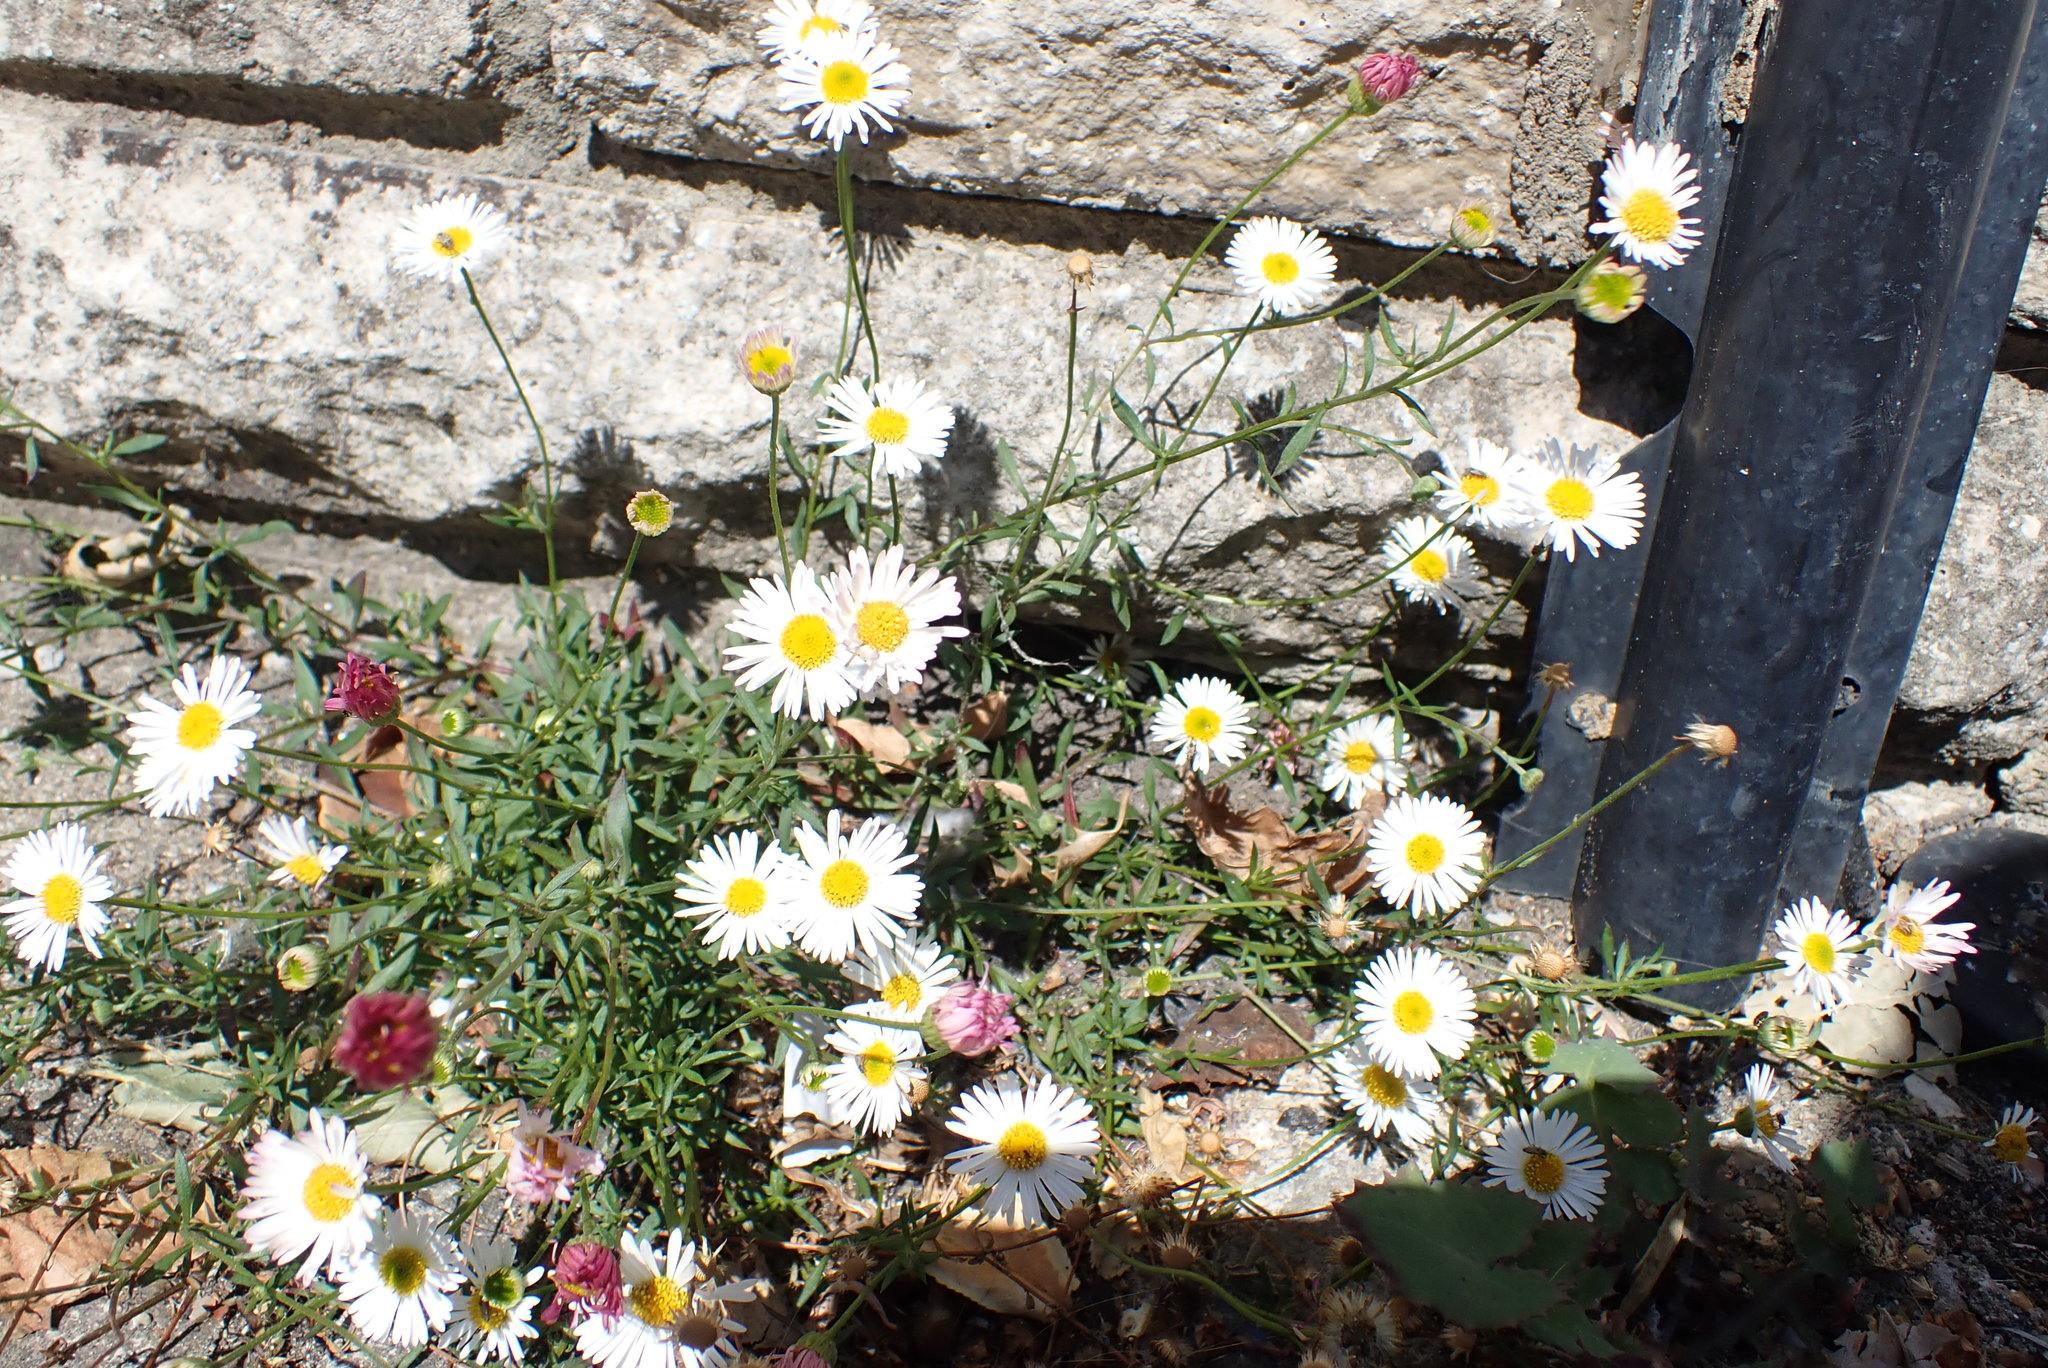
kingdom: Plantae
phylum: Tracheophyta
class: Magnoliopsida
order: Asterales
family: Asteraceae
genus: Erigeron
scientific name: Erigeron karvinskianus
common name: Mexican fleabane
